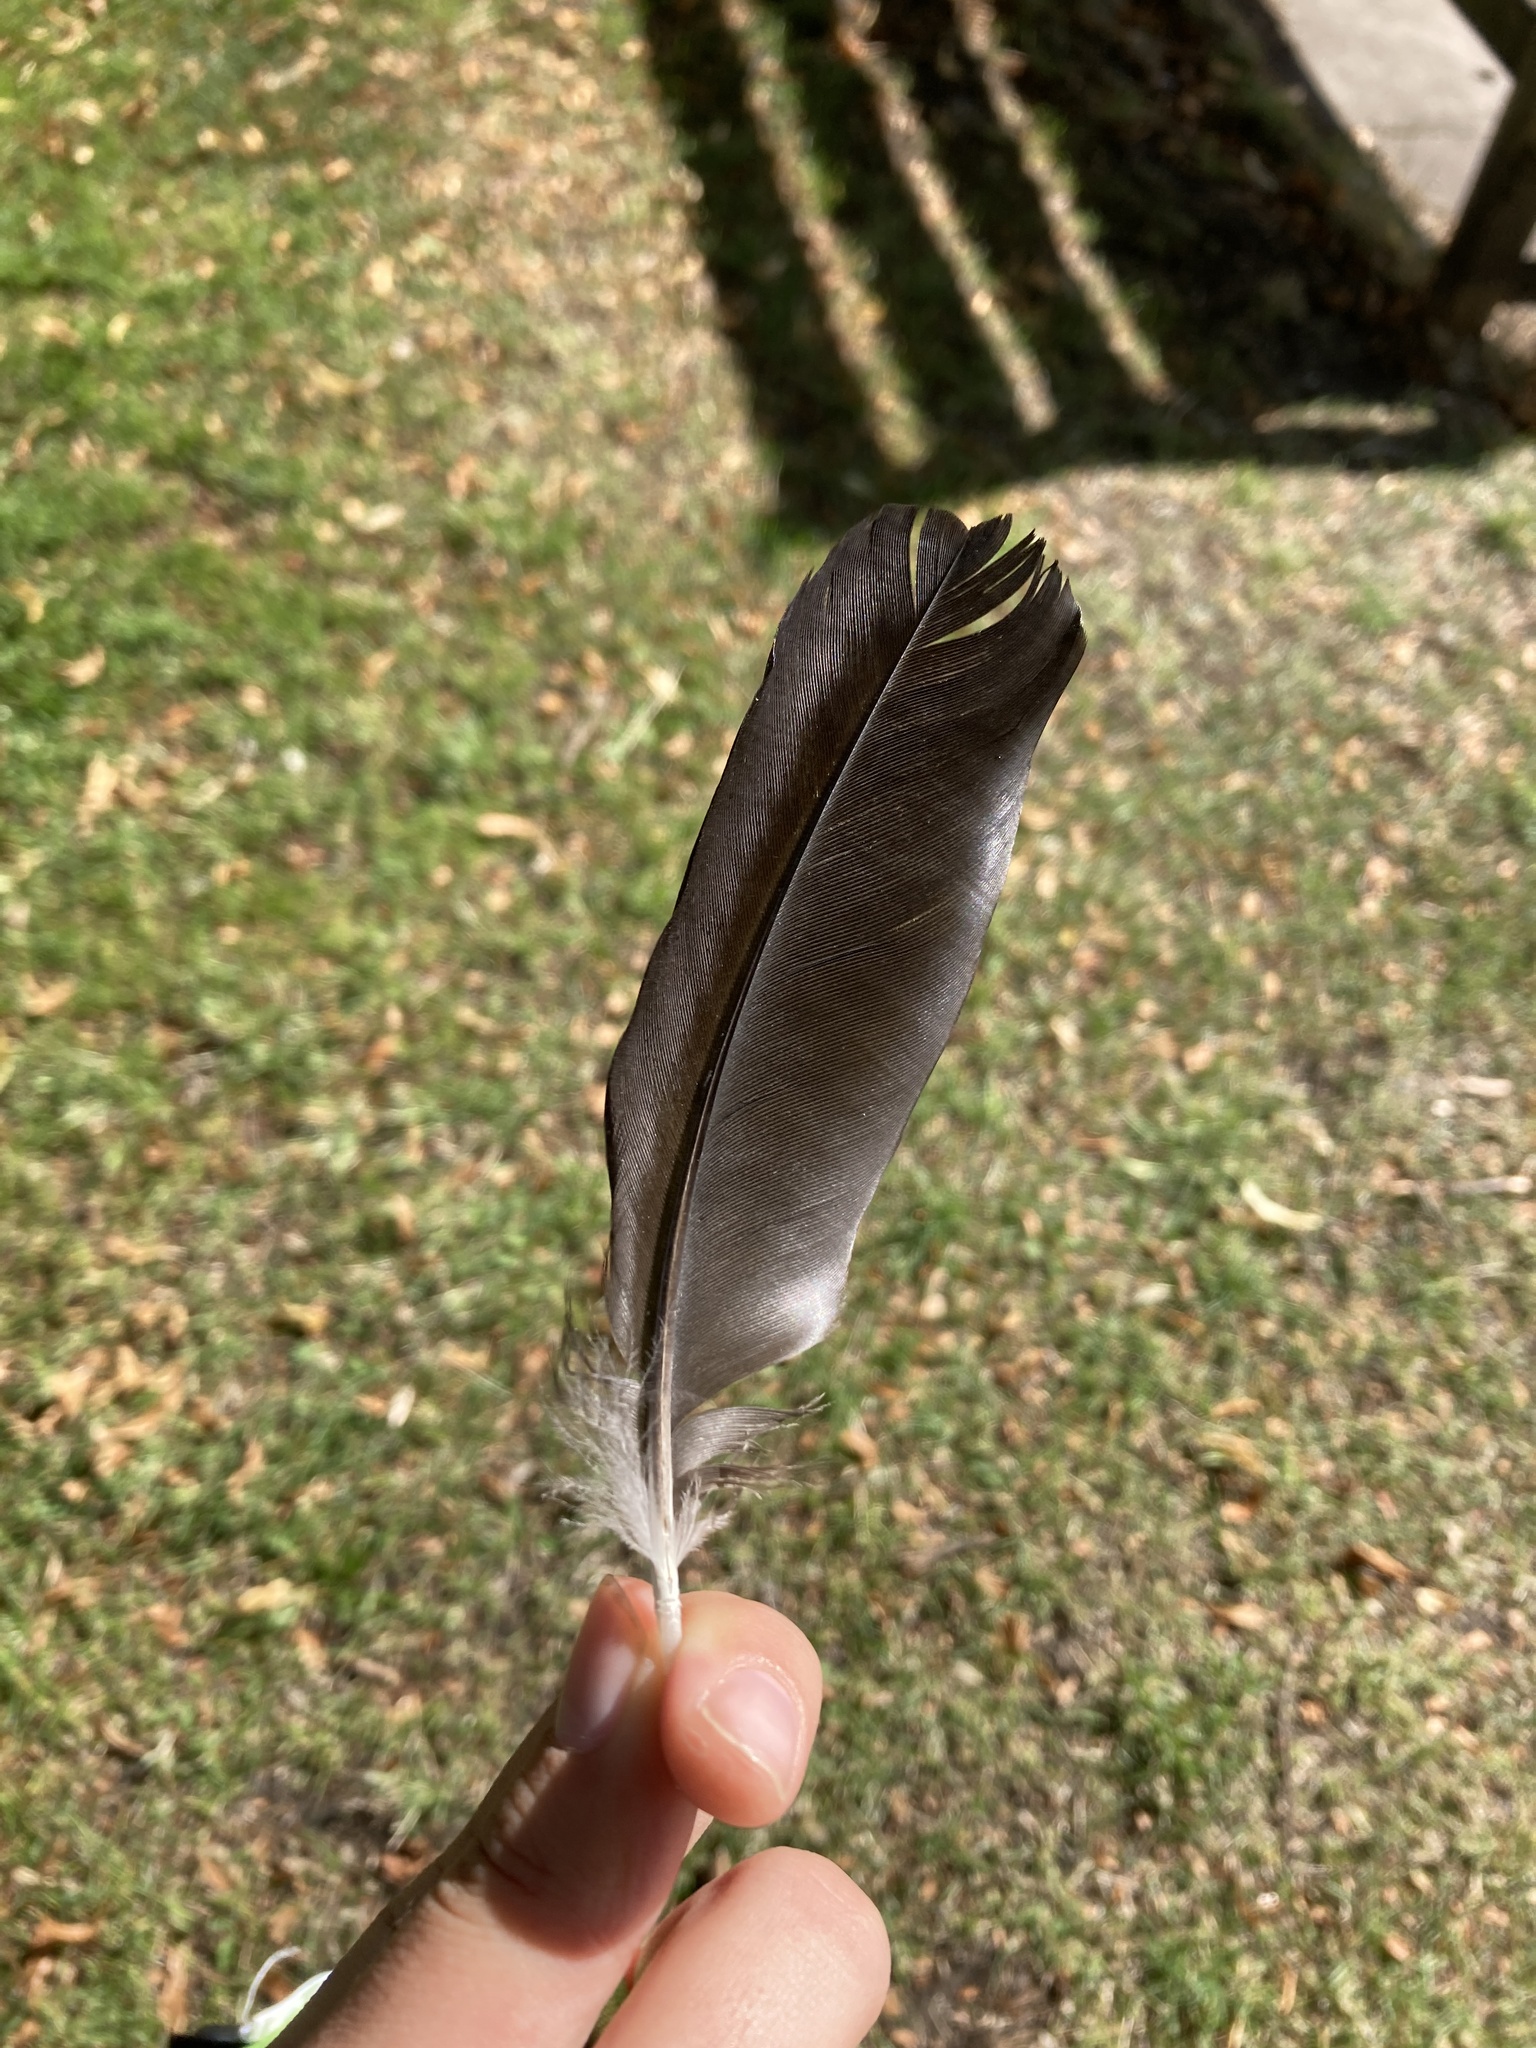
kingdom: Animalia
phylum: Chordata
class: Aves
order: Passeriformes
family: Corvidae
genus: Coloeus
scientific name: Coloeus monedula
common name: Western jackdaw
